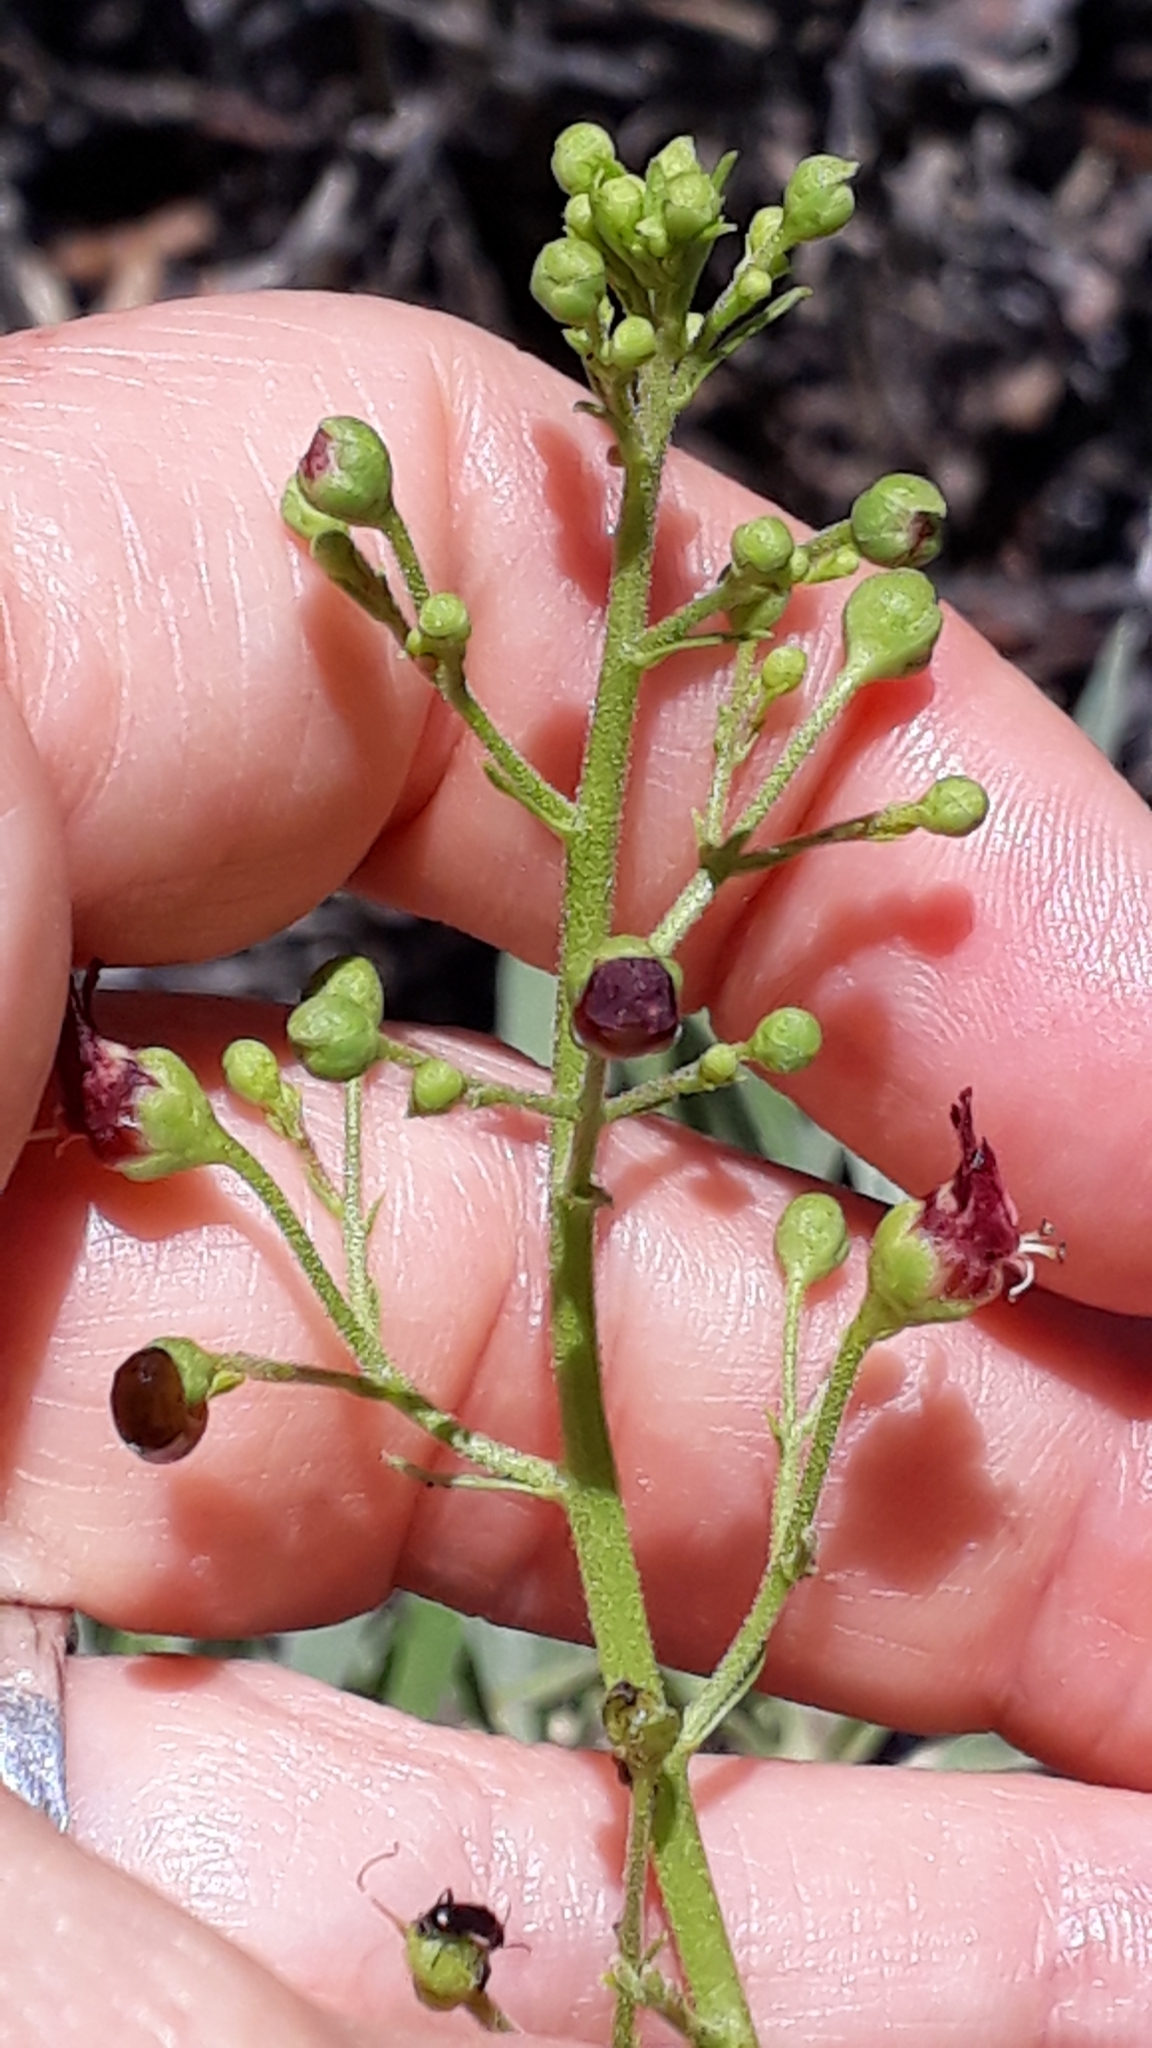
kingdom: Plantae
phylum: Tracheophyta
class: Magnoliopsida
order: Lamiales
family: Scrophulariaceae
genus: Scrophularia
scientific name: Scrophularia glabrata
